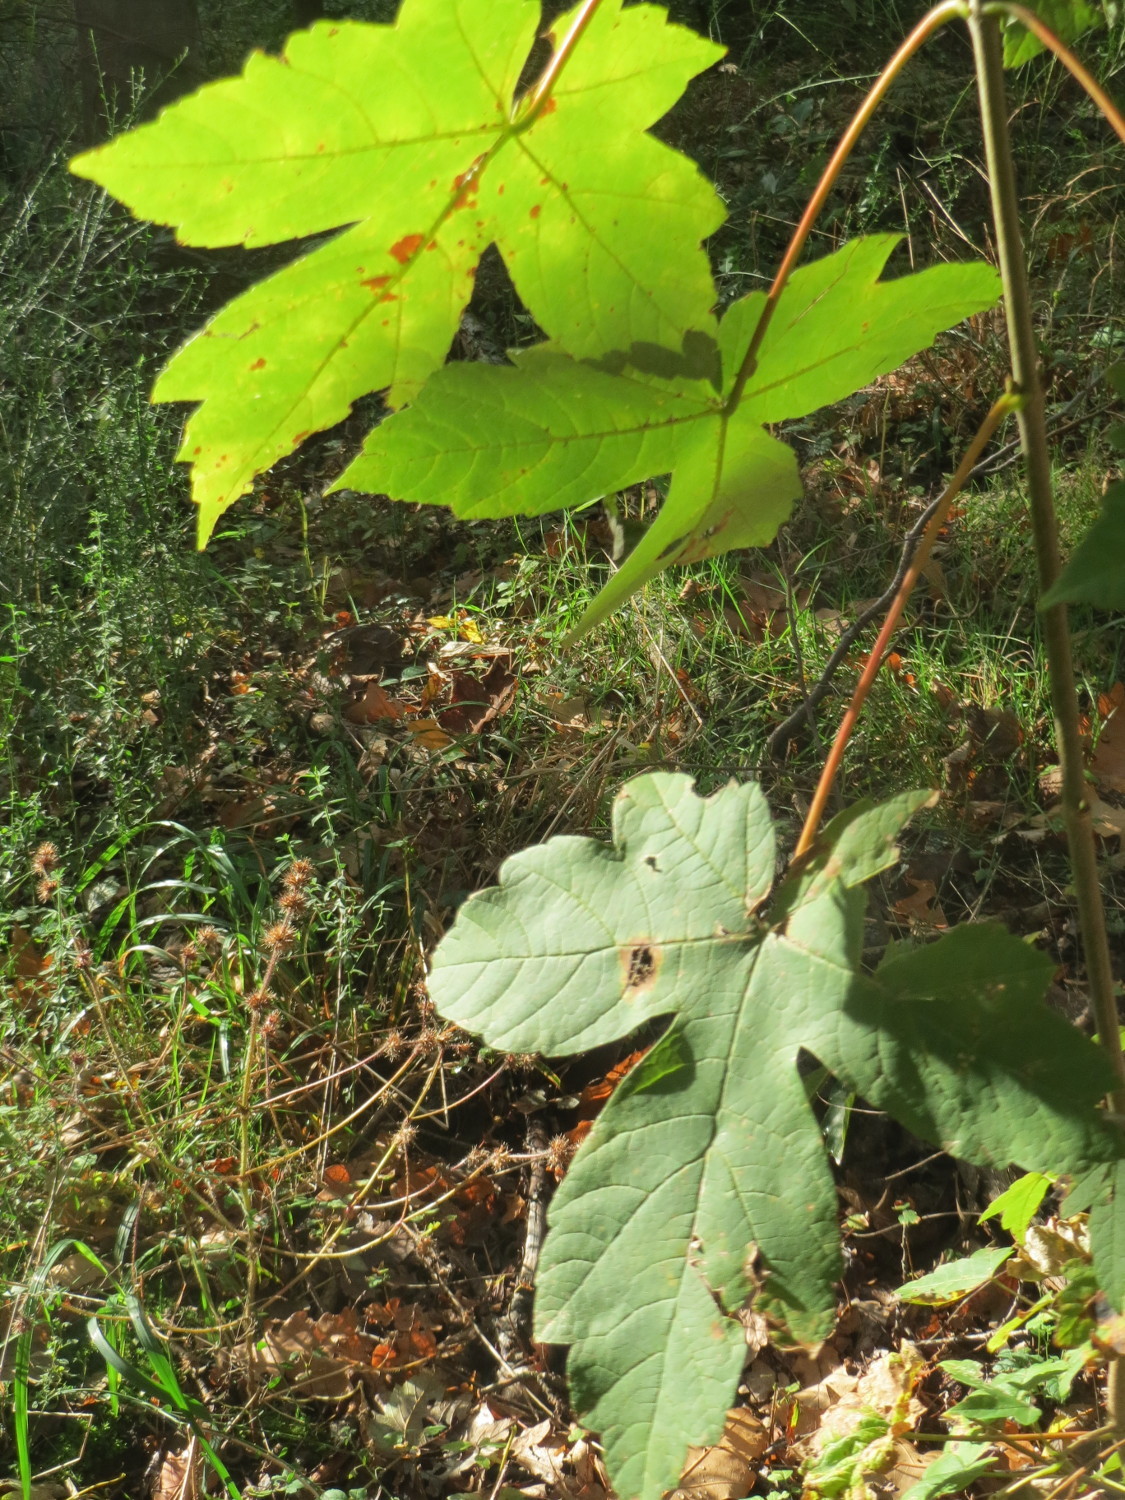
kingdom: Plantae
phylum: Tracheophyta
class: Magnoliopsida
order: Sapindales
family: Sapindaceae
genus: Acer
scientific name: Acer pseudoplatanus
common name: Sycamore
